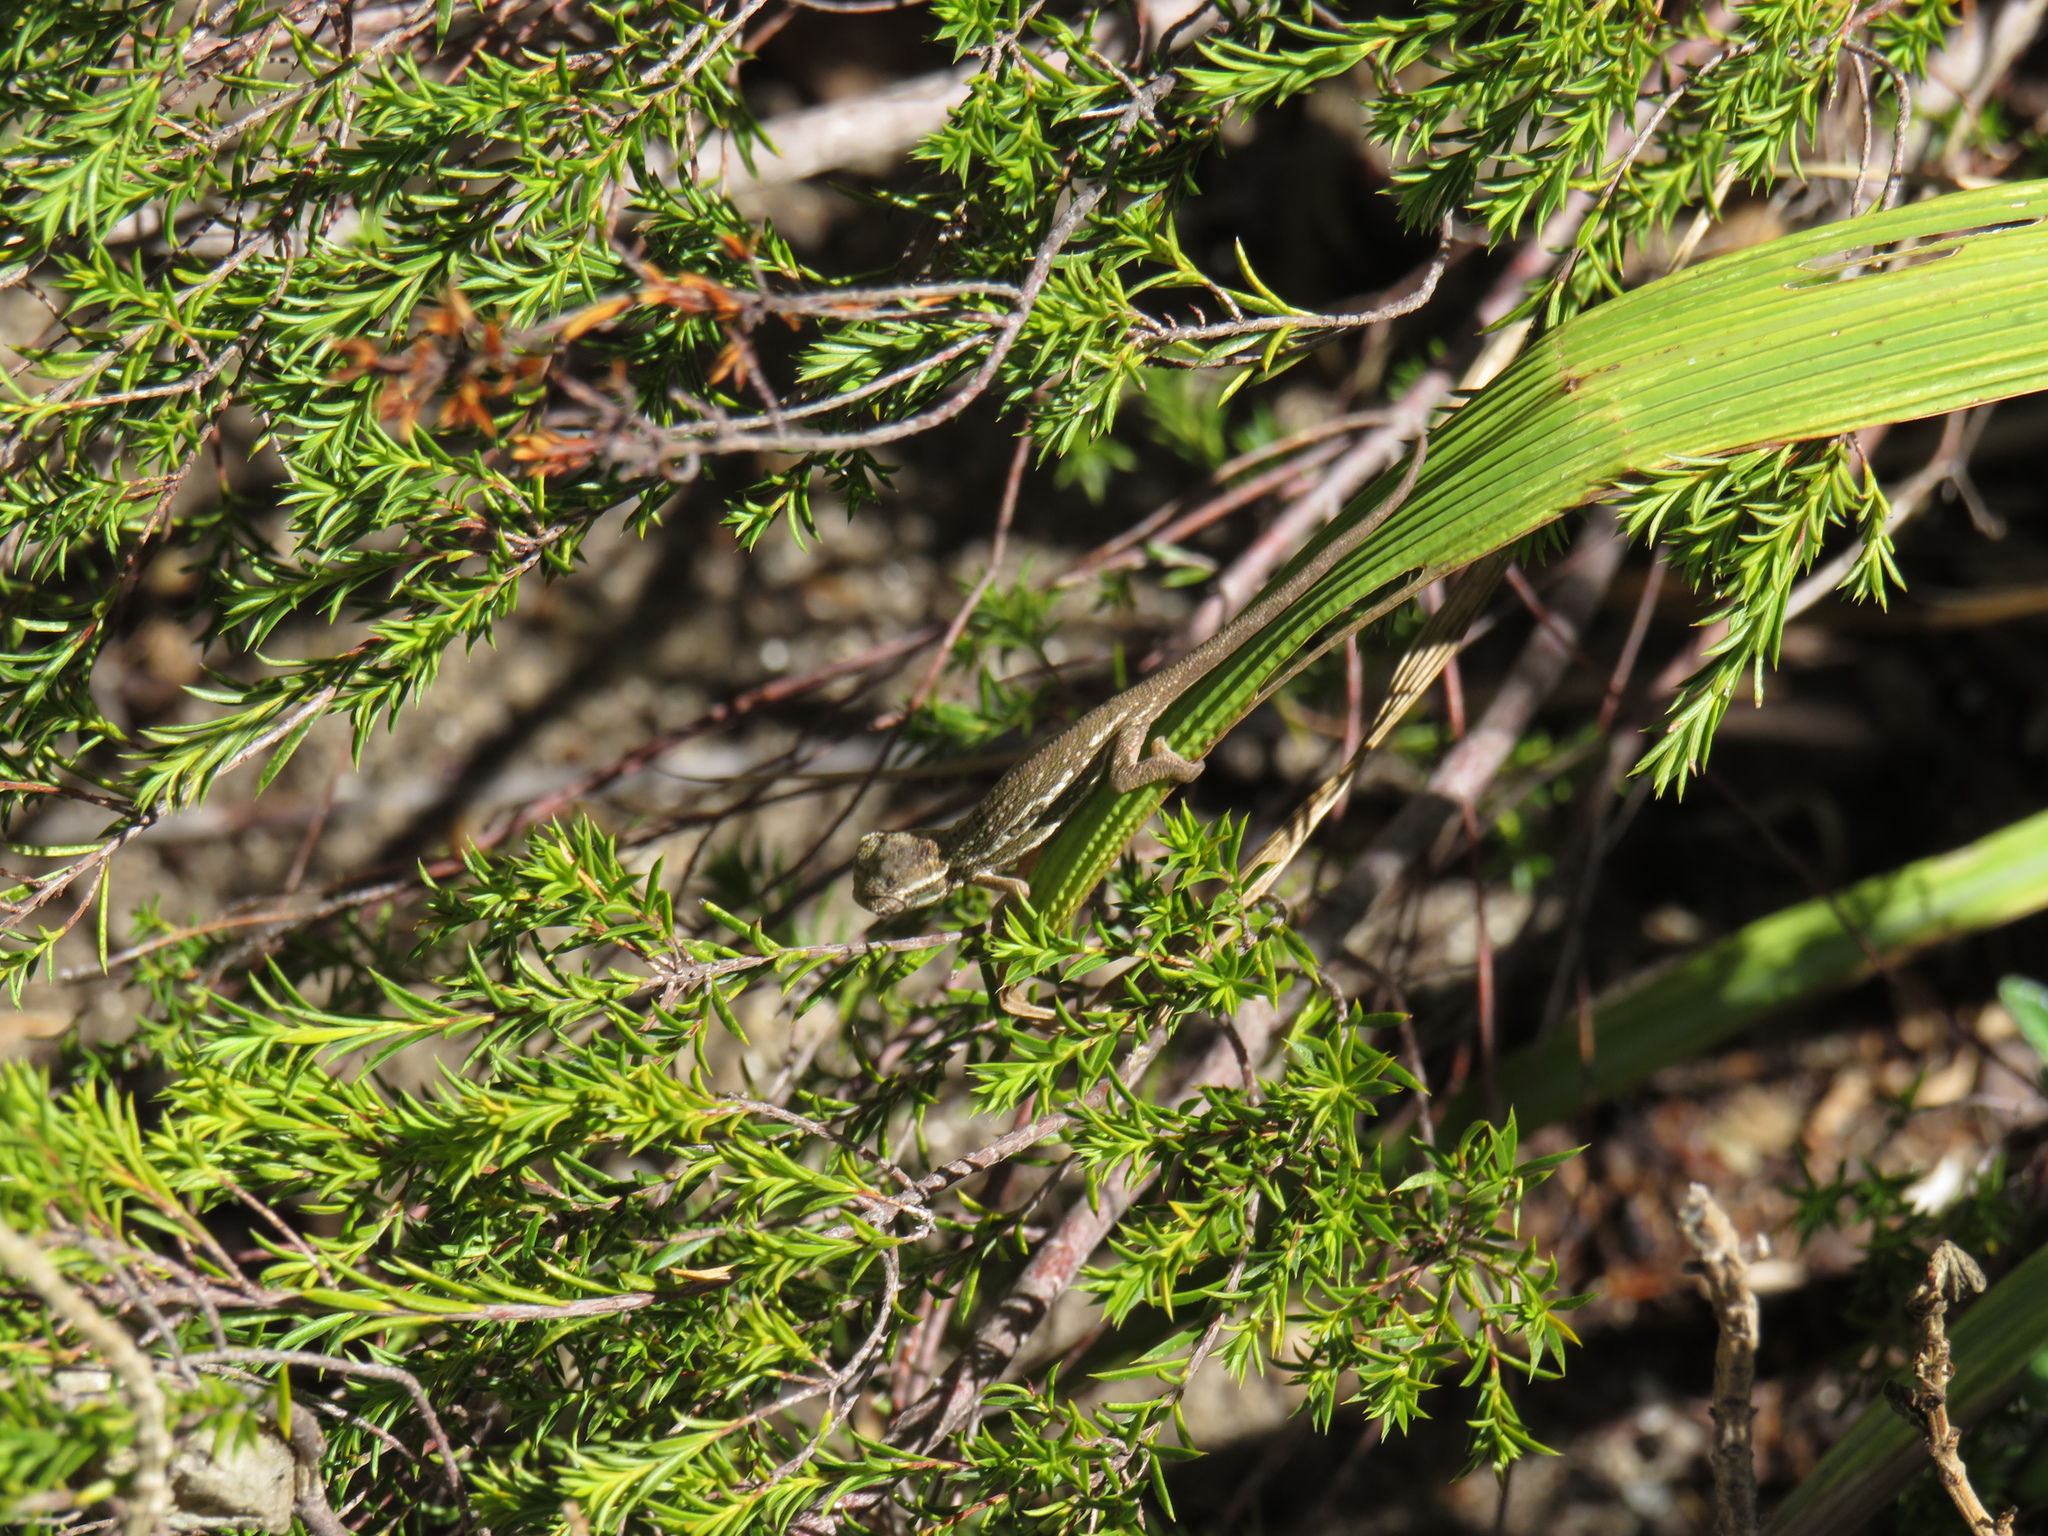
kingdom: Animalia
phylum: Chordata
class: Squamata
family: Chamaeleonidae
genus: Bradypodion
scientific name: Bradypodion pumilum
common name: Cape dwarf chameleon
